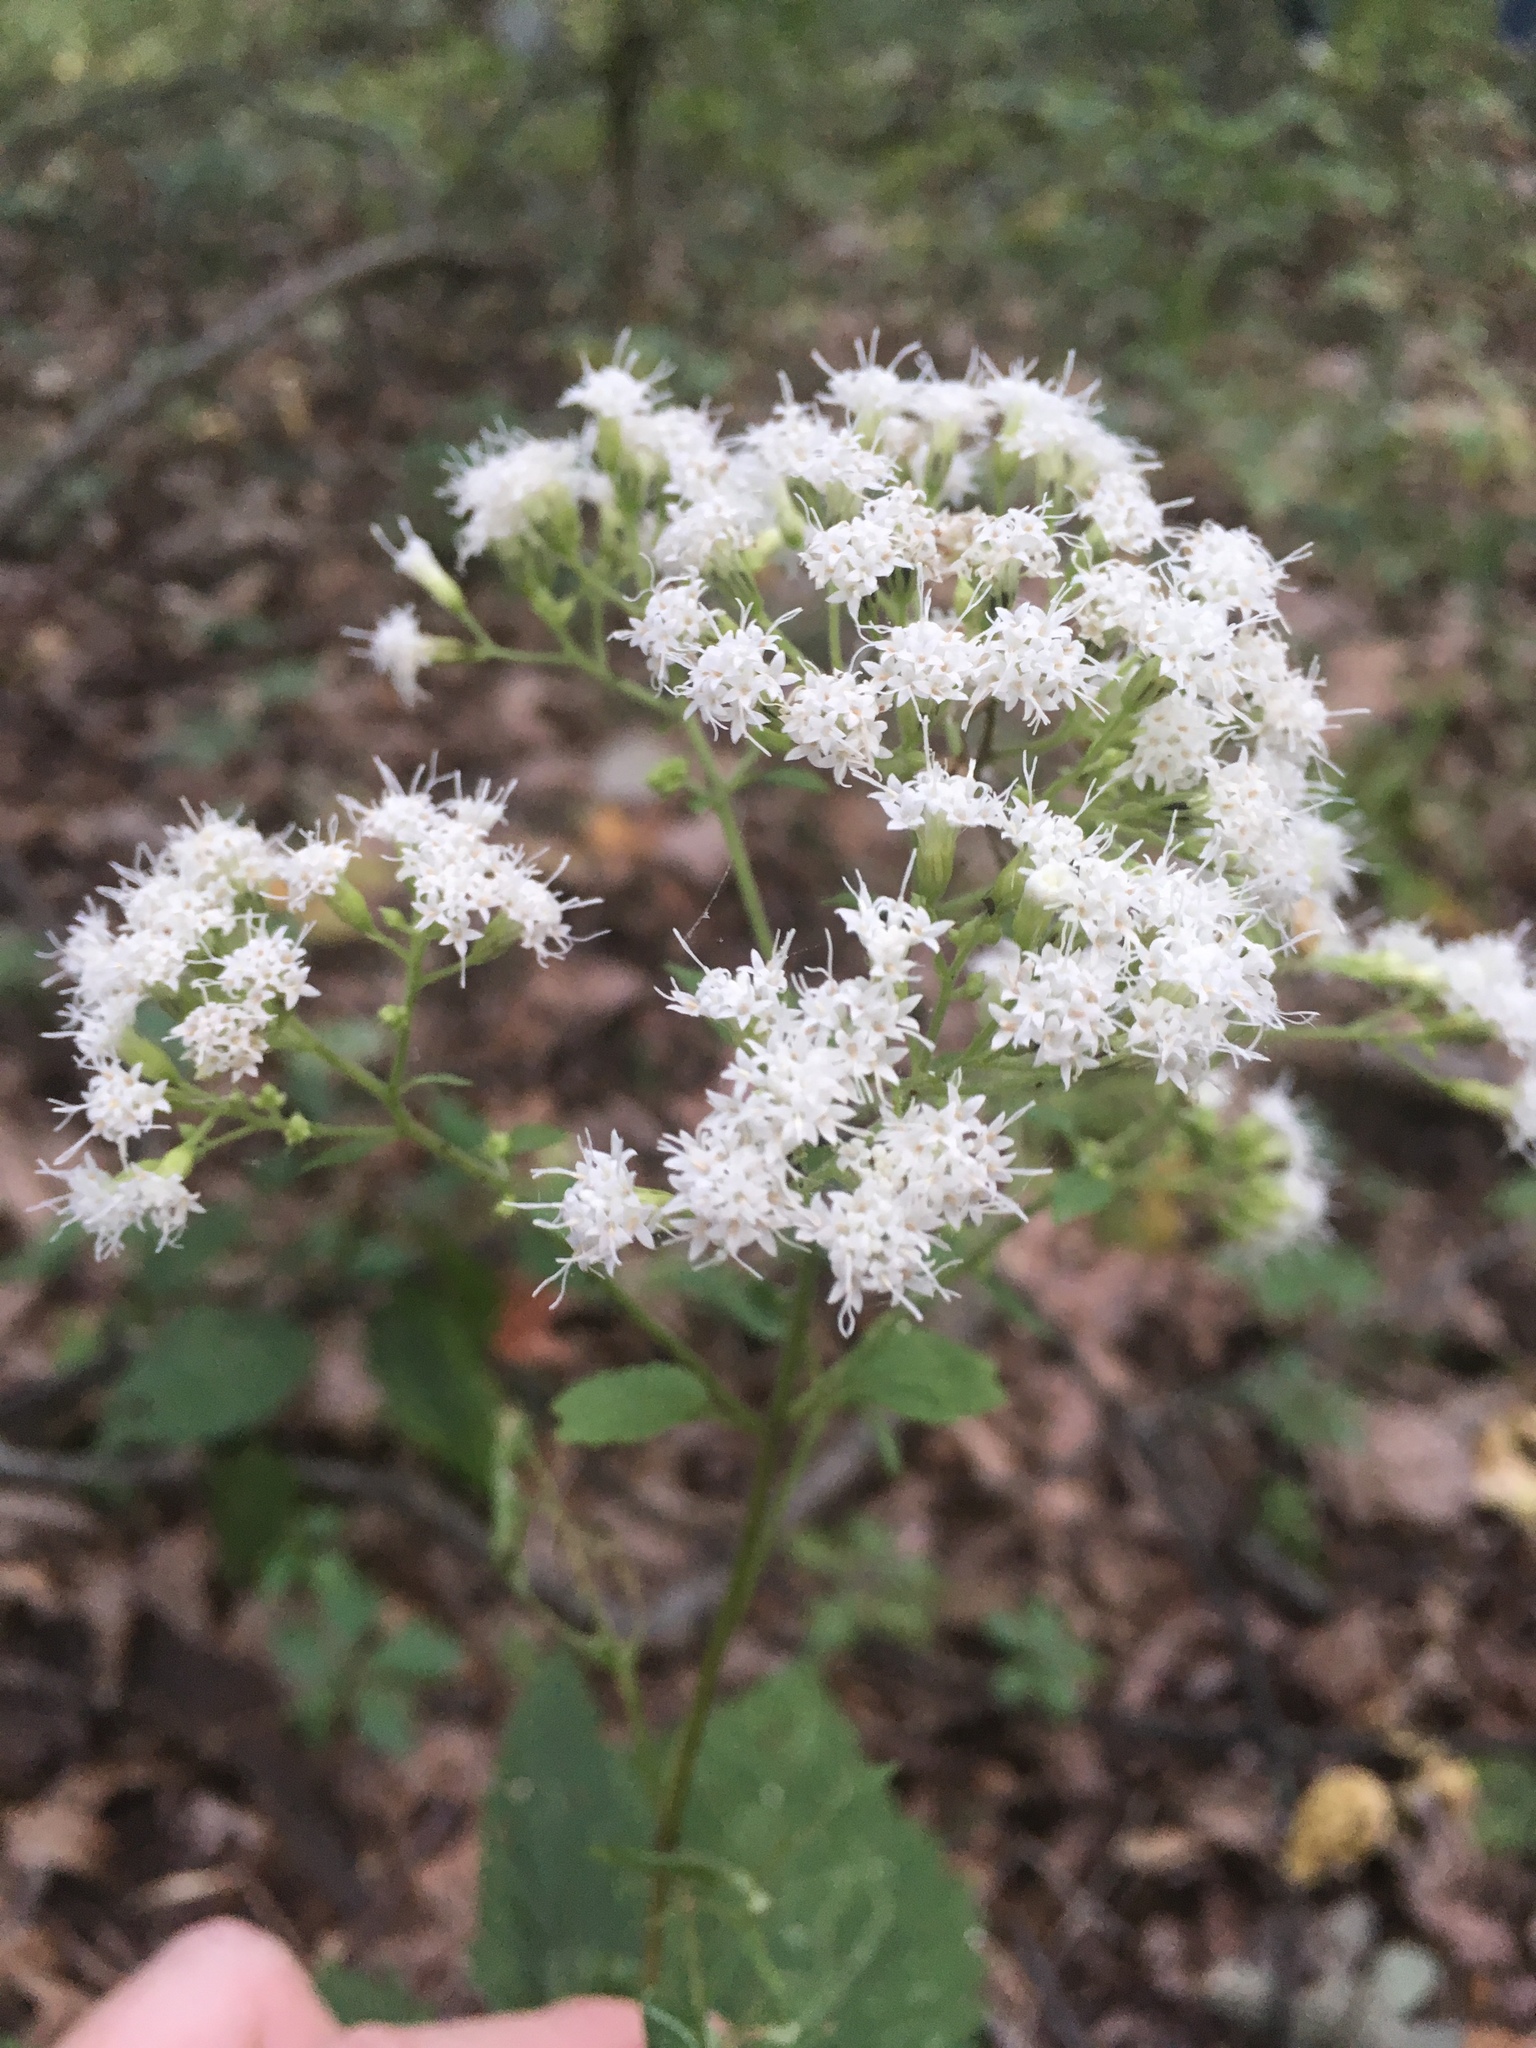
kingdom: Plantae
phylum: Tracheophyta
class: Magnoliopsida
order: Asterales
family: Asteraceae
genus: Ageratina
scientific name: Ageratina altissima
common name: White snakeroot
